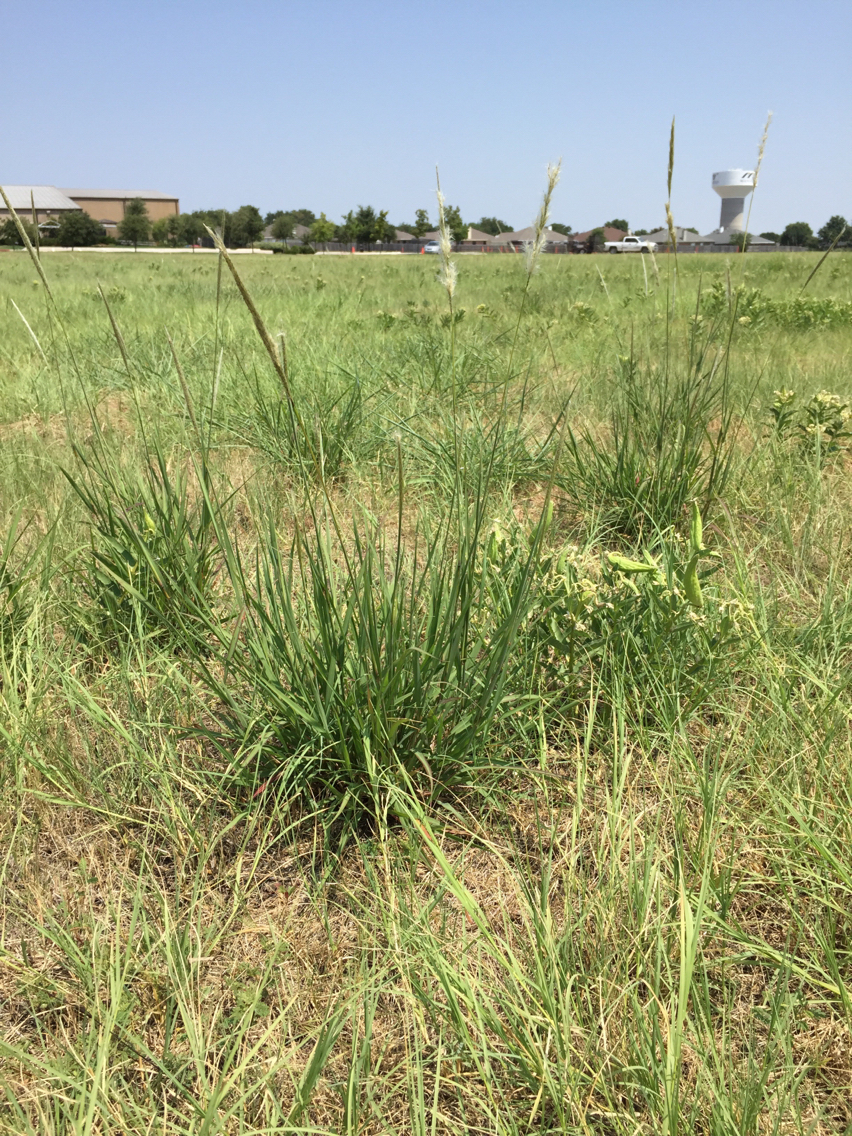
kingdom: Plantae
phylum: Tracheophyta
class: Liliopsida
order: Poales
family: Poaceae
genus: Bothriochloa
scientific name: Bothriochloa torreyana
